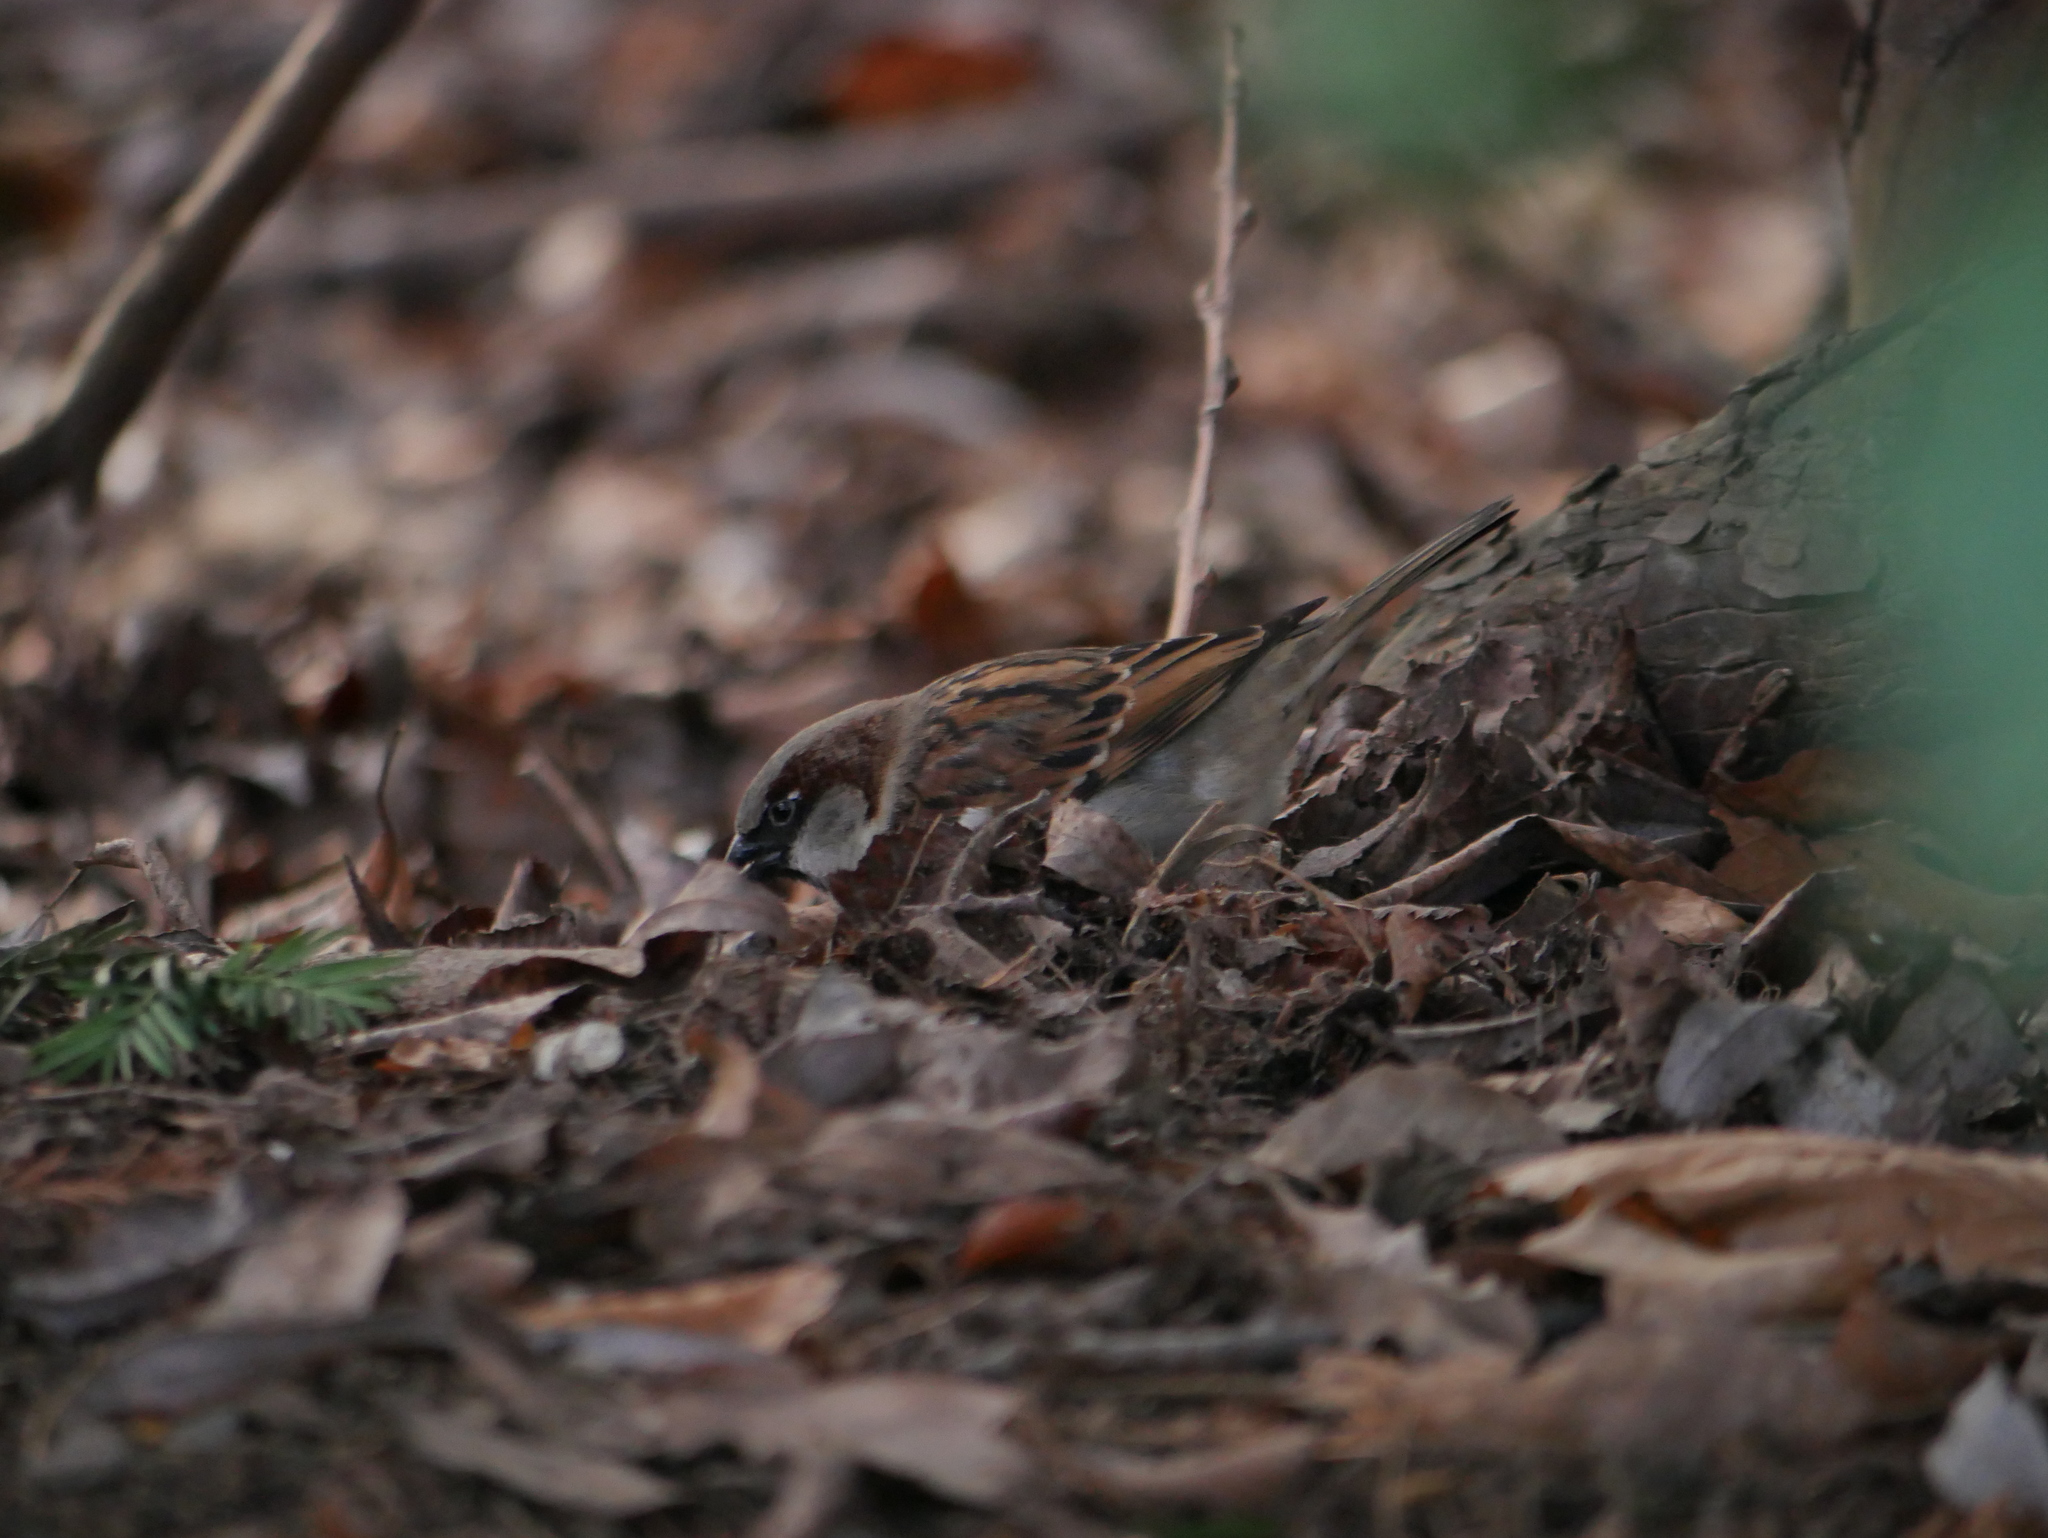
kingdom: Animalia
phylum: Chordata
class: Aves
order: Passeriformes
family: Passeridae
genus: Passer
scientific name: Passer domesticus
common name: House sparrow
